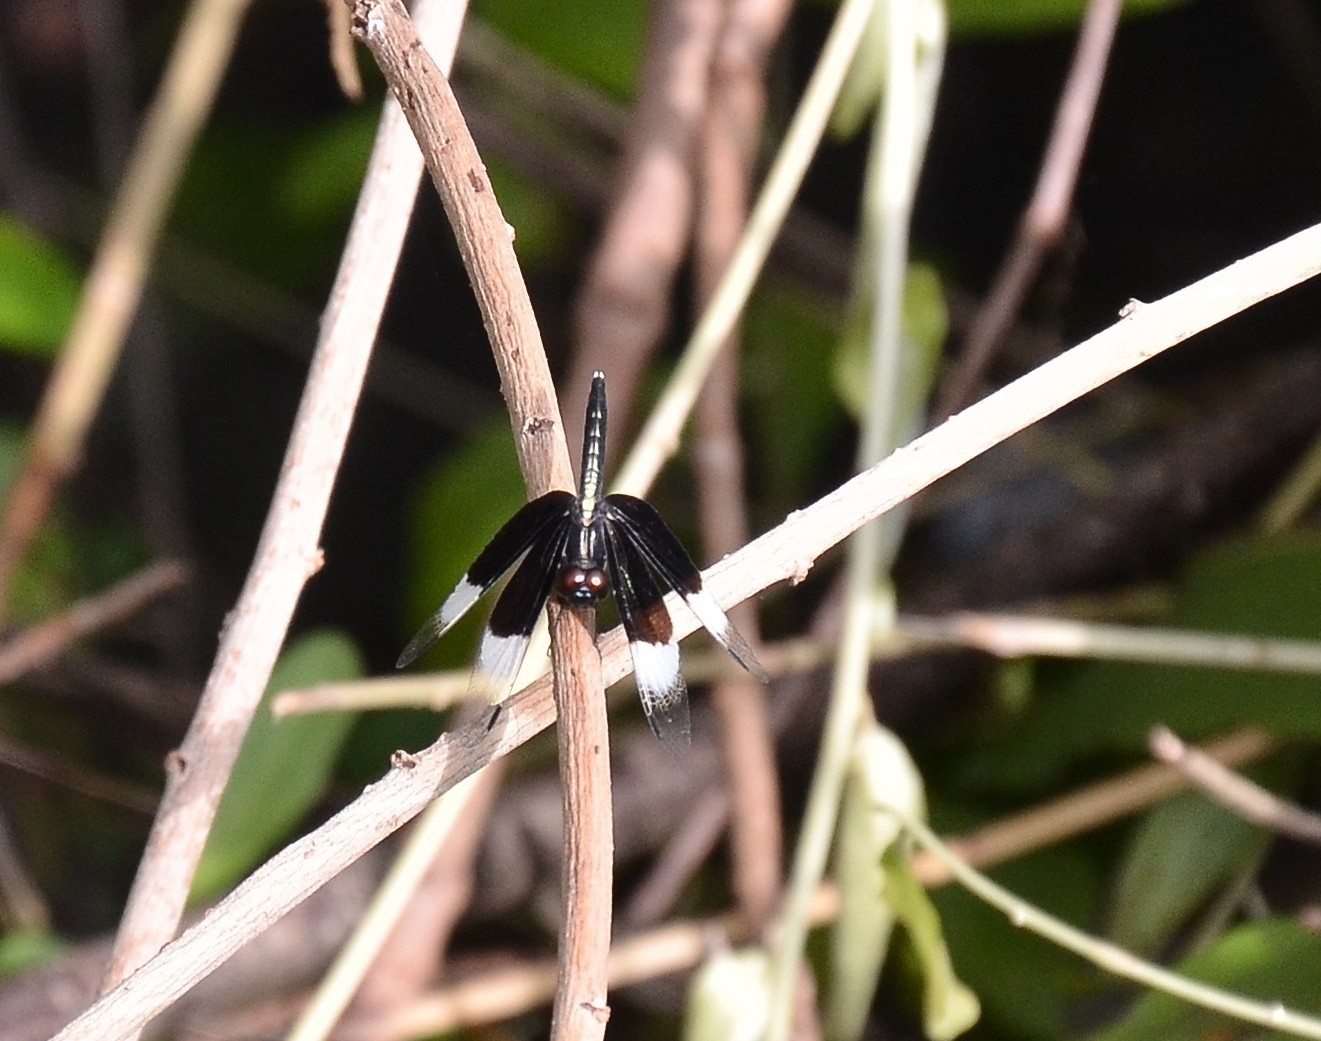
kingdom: Animalia
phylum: Arthropoda
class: Insecta
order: Odonata
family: Libellulidae
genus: Neurothemis
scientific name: Neurothemis tullia
